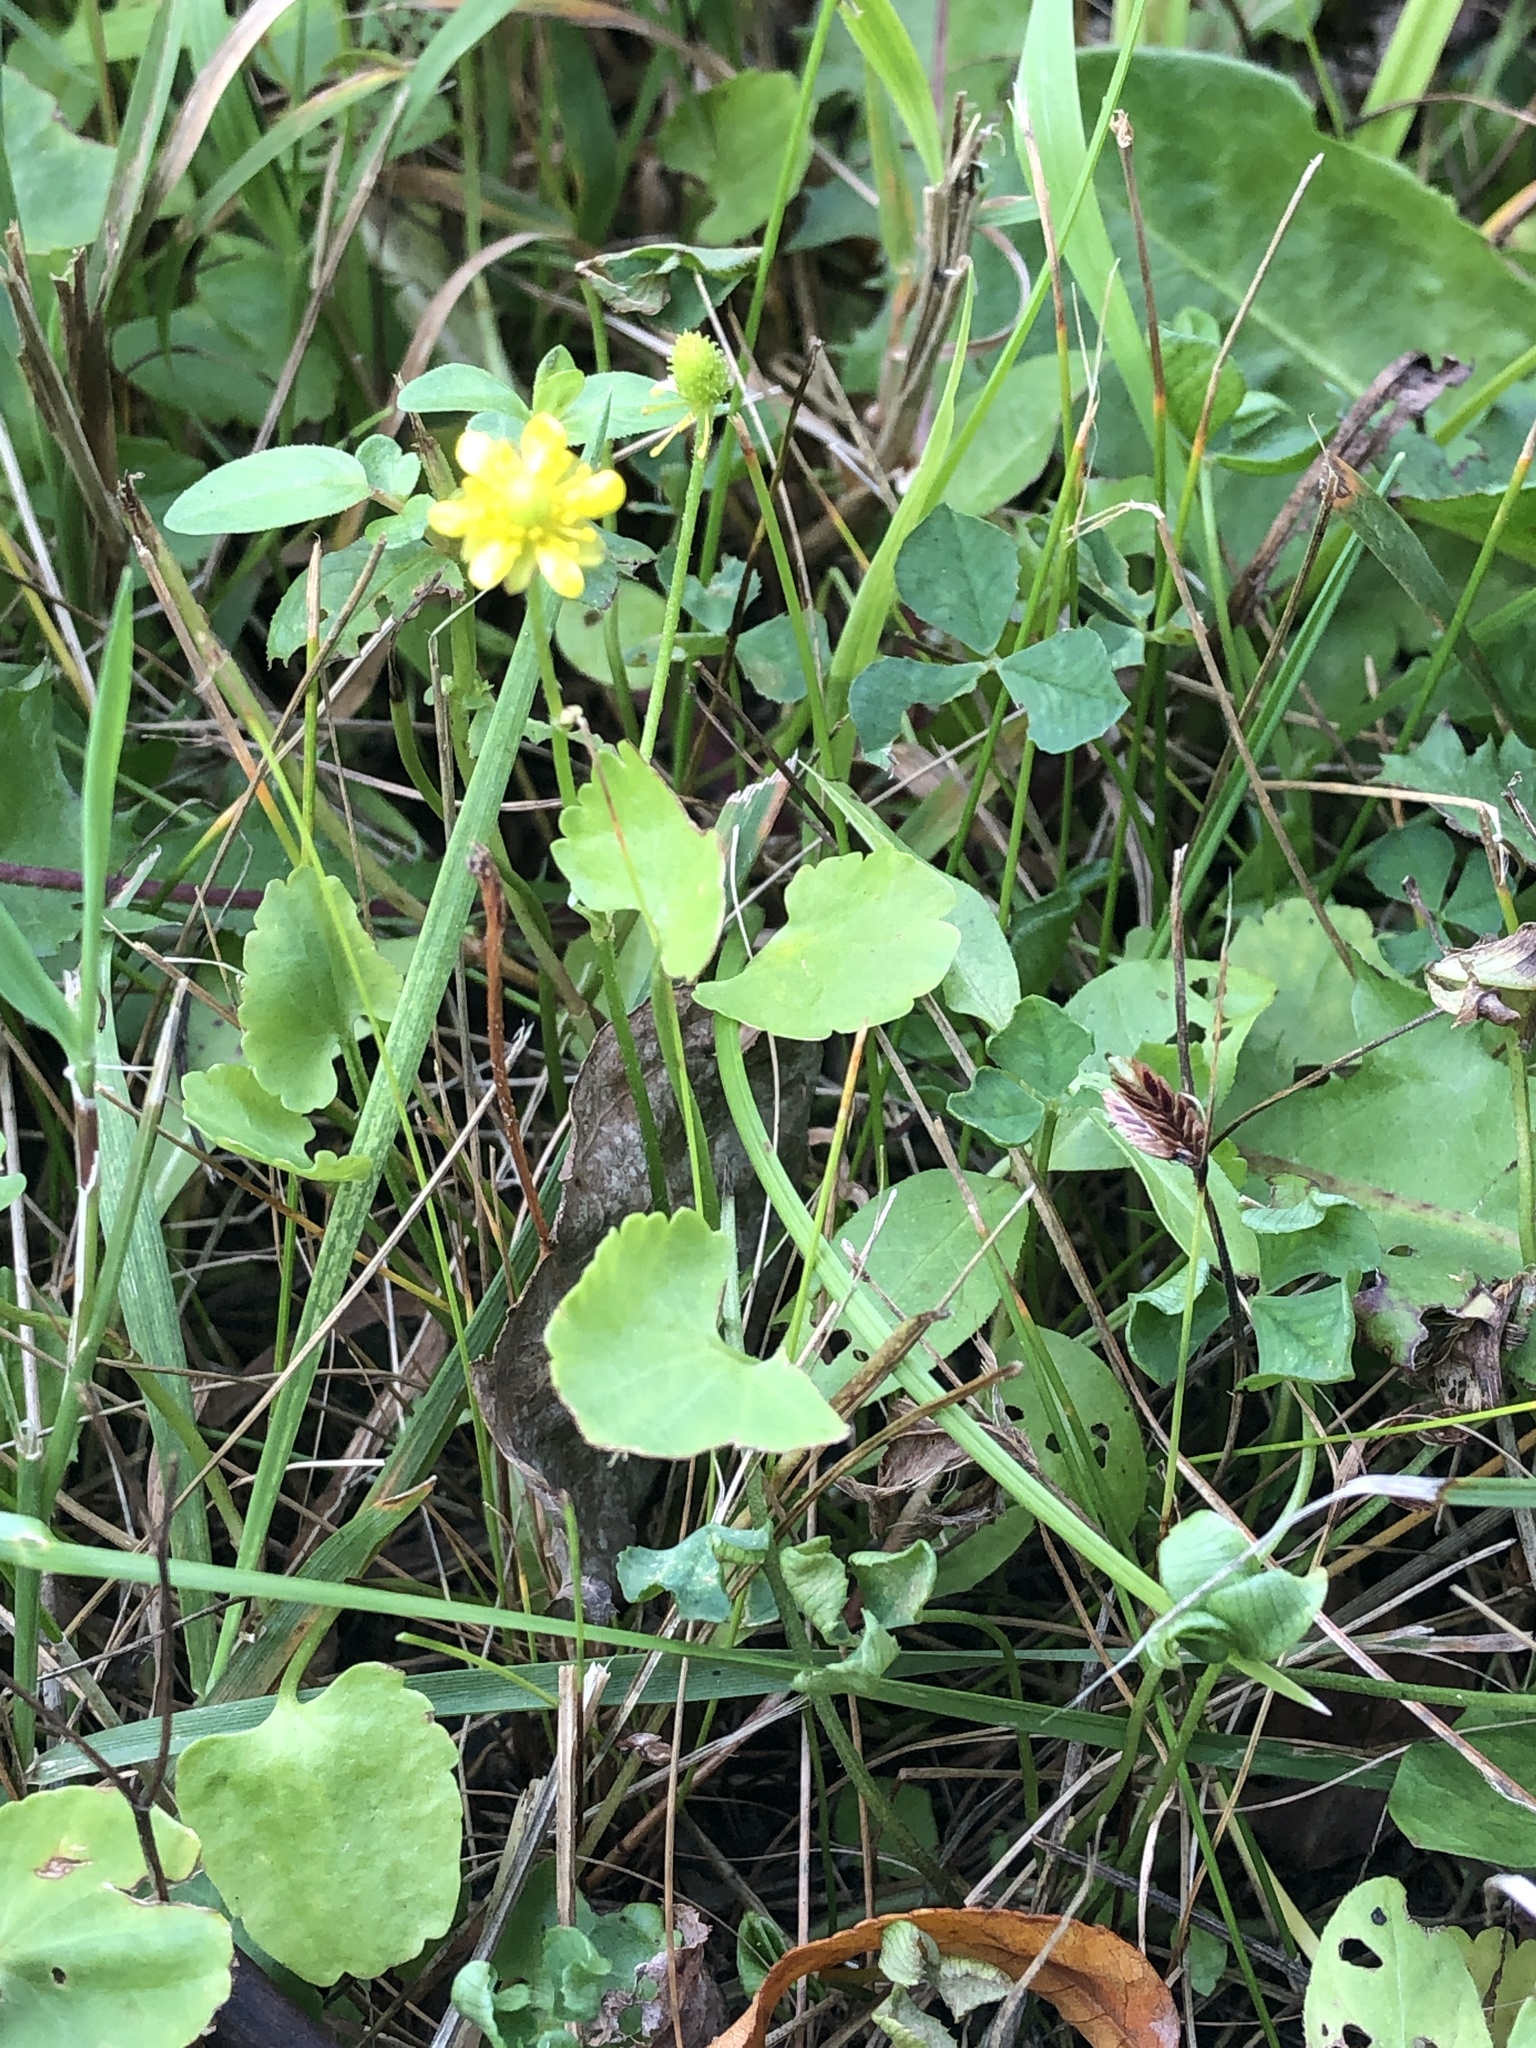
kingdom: Plantae
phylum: Tracheophyta
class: Magnoliopsida
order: Ranunculales
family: Ranunculaceae
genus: Halerpestes
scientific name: Halerpestes cymbalaria
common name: Seaside crowfoot
